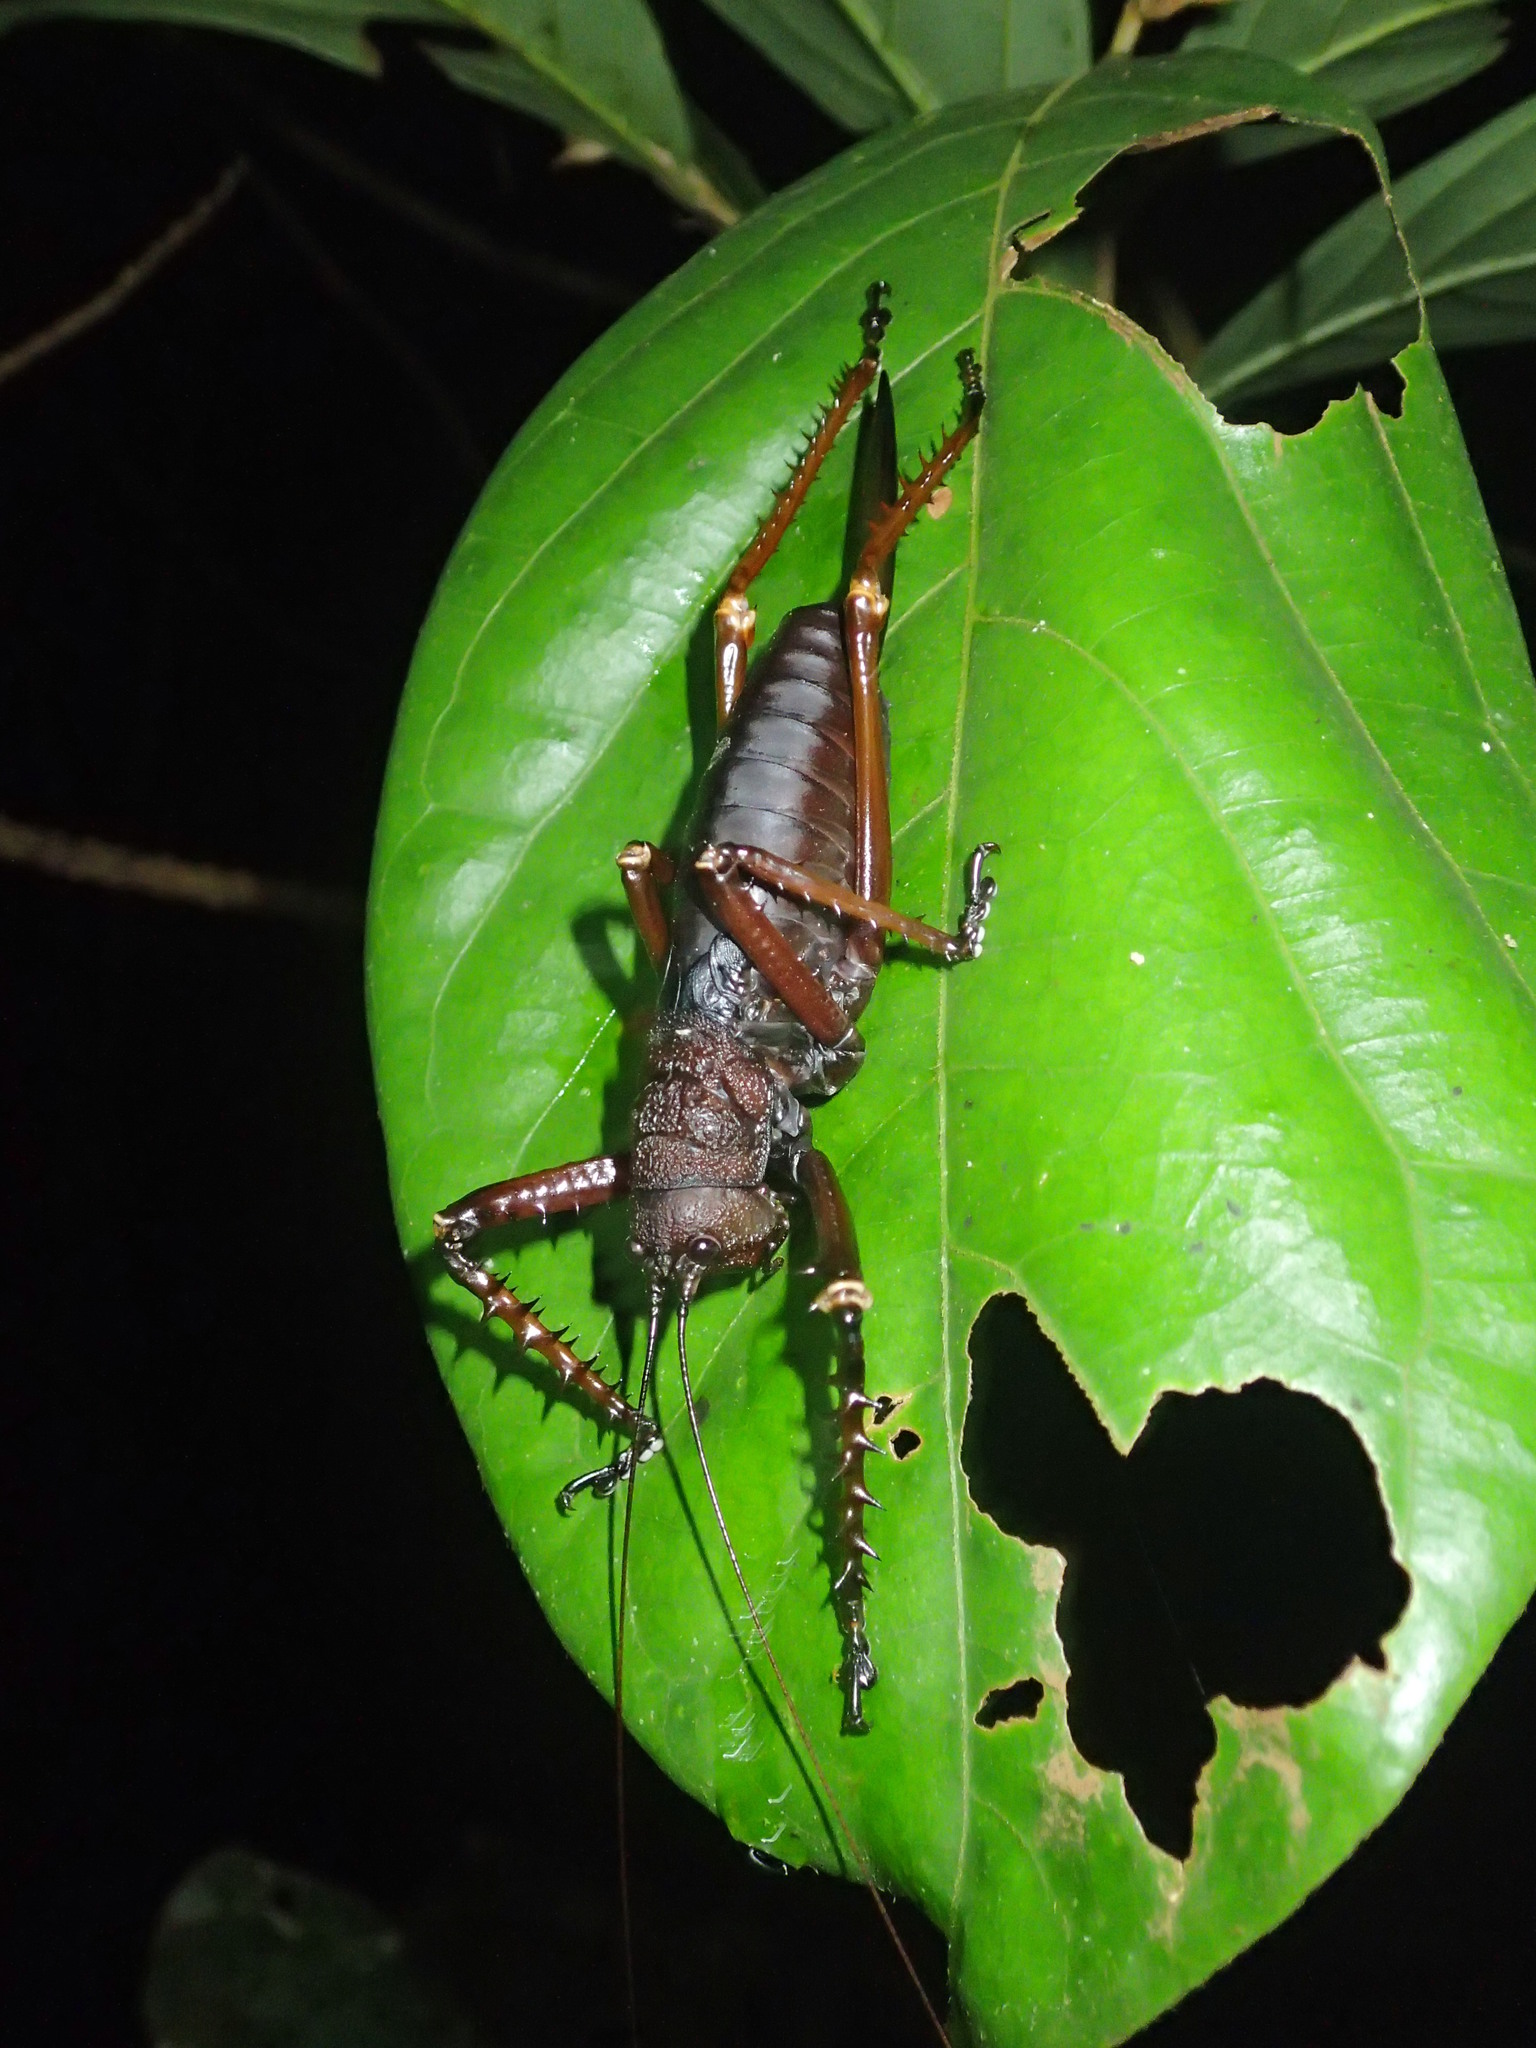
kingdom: Animalia
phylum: Arthropoda
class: Insecta
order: Orthoptera
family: Tettigoniidae
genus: Panoploscelis
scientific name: Panoploscelis specularis
